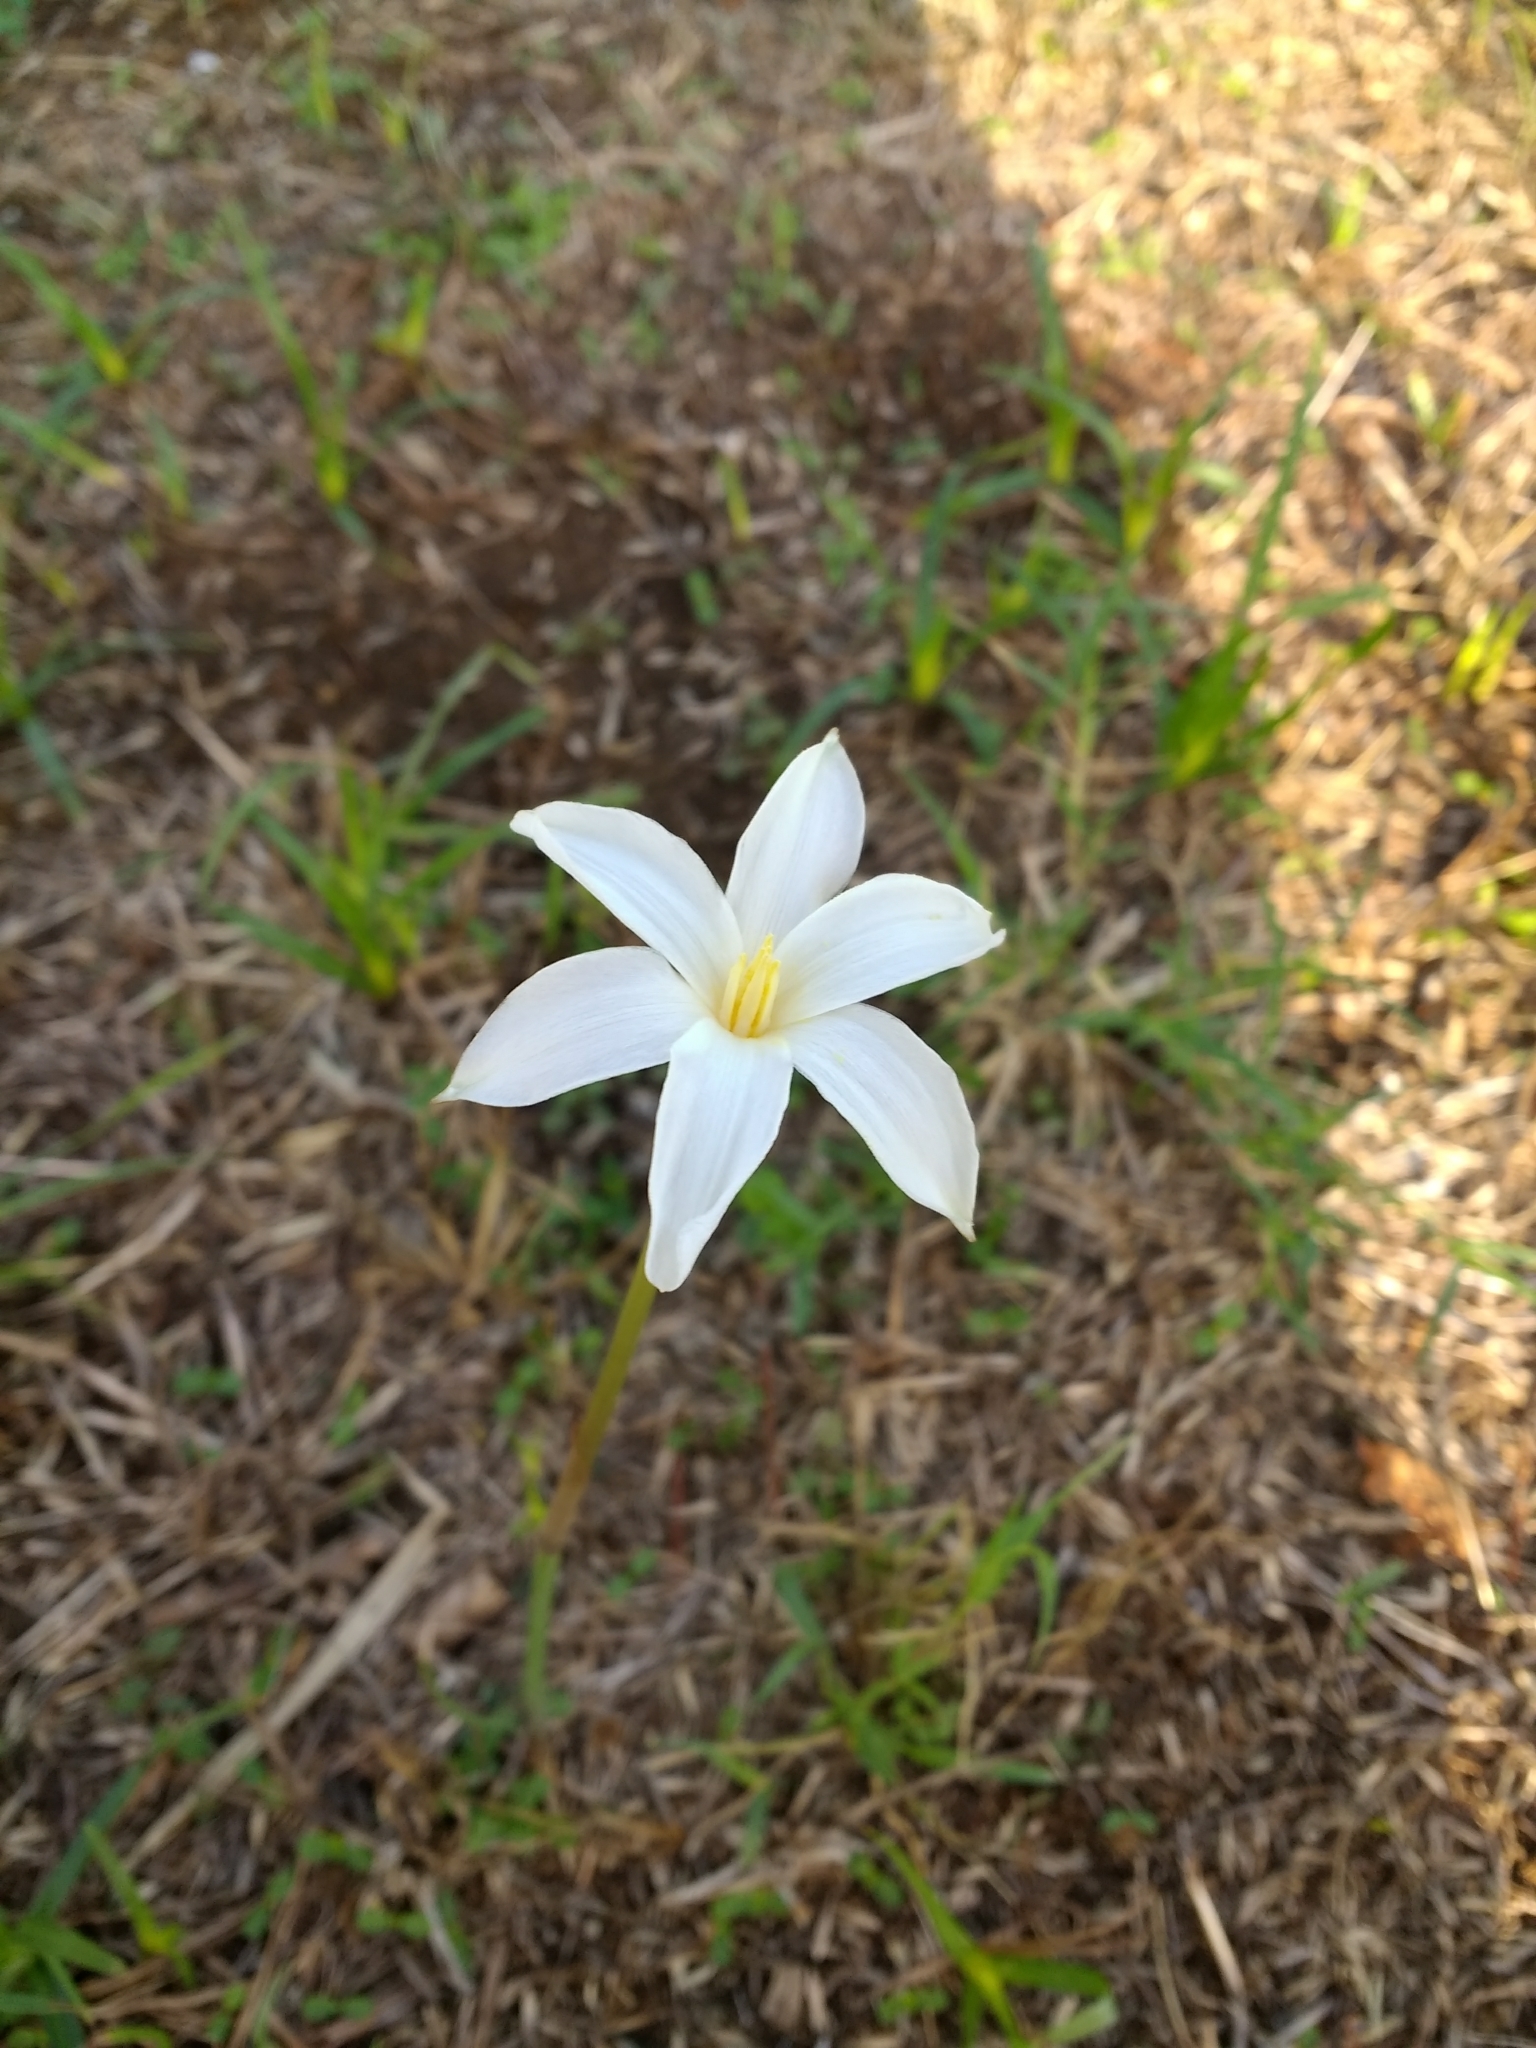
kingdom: Plantae
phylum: Tracheophyta
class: Liliopsida
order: Asparagales
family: Amaryllidaceae
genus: Zephyranthes
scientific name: Zephyranthes chlorosolen
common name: Evening rain-lily
